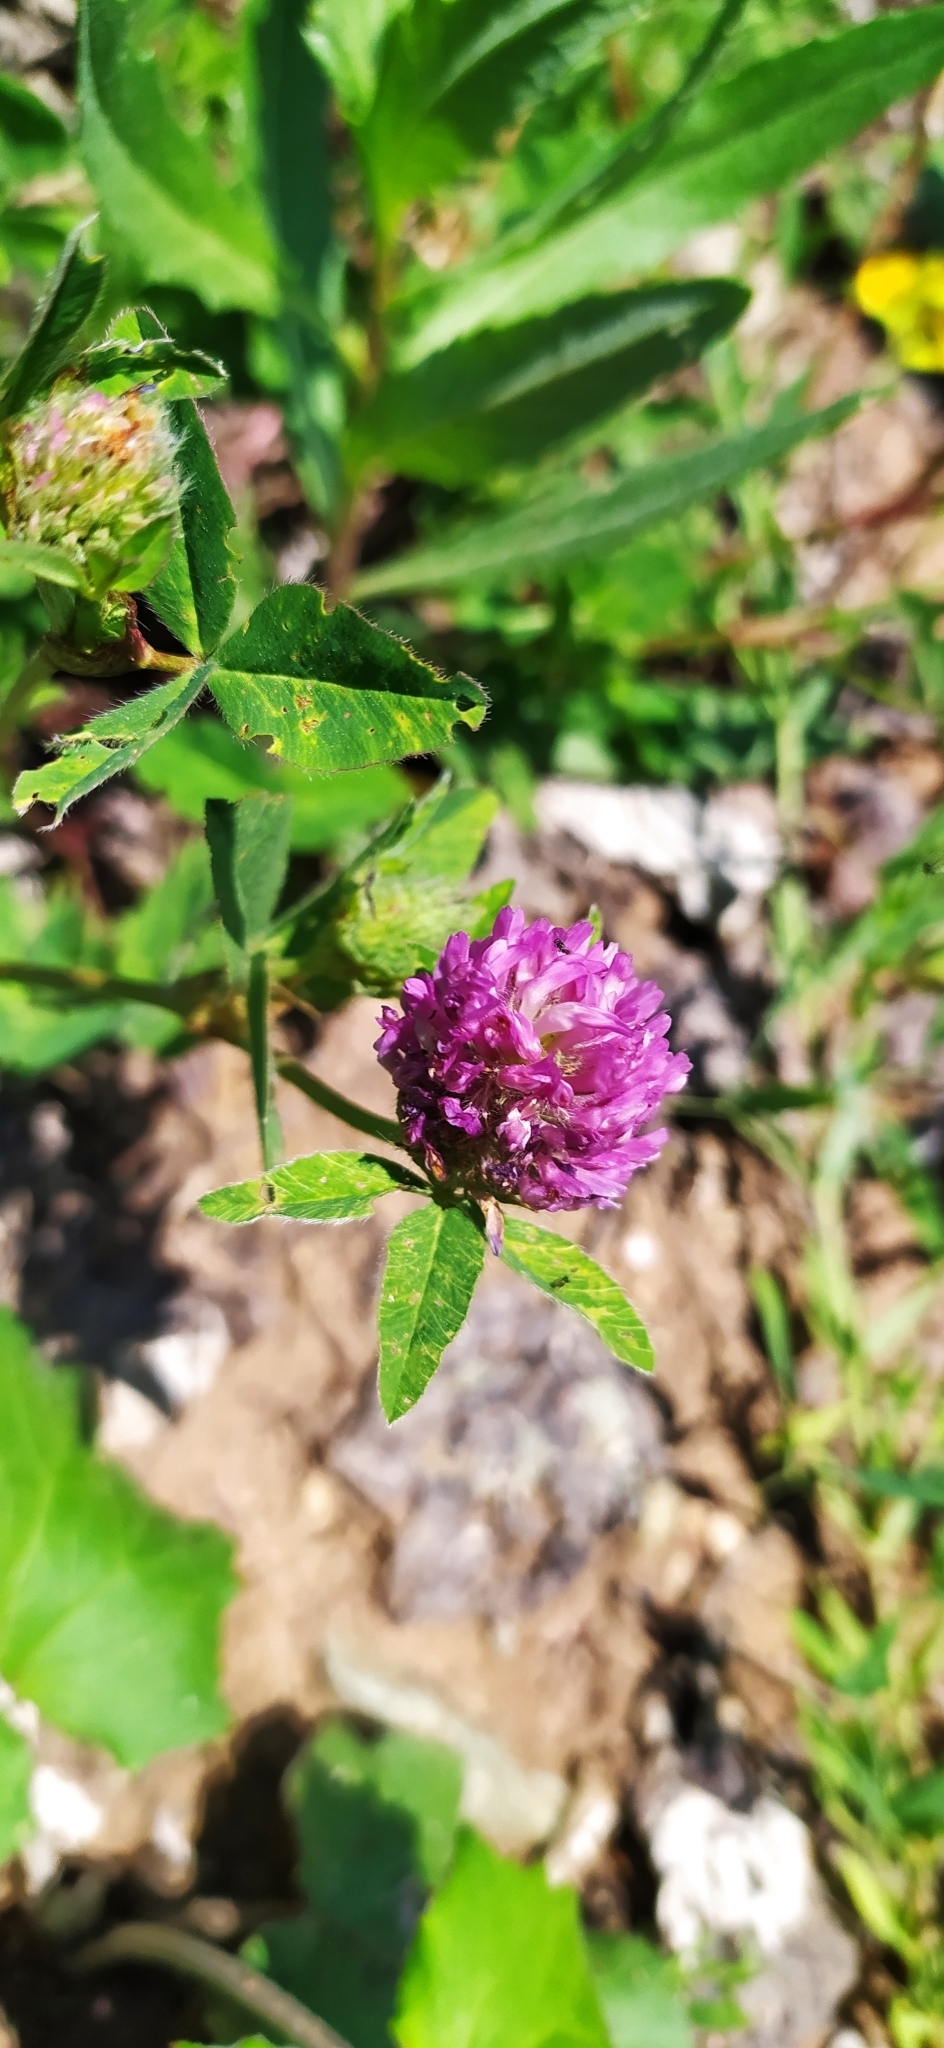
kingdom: Plantae
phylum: Tracheophyta
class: Magnoliopsida
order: Fabales
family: Fabaceae
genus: Trifolium
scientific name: Trifolium medium
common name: Zigzag clover
